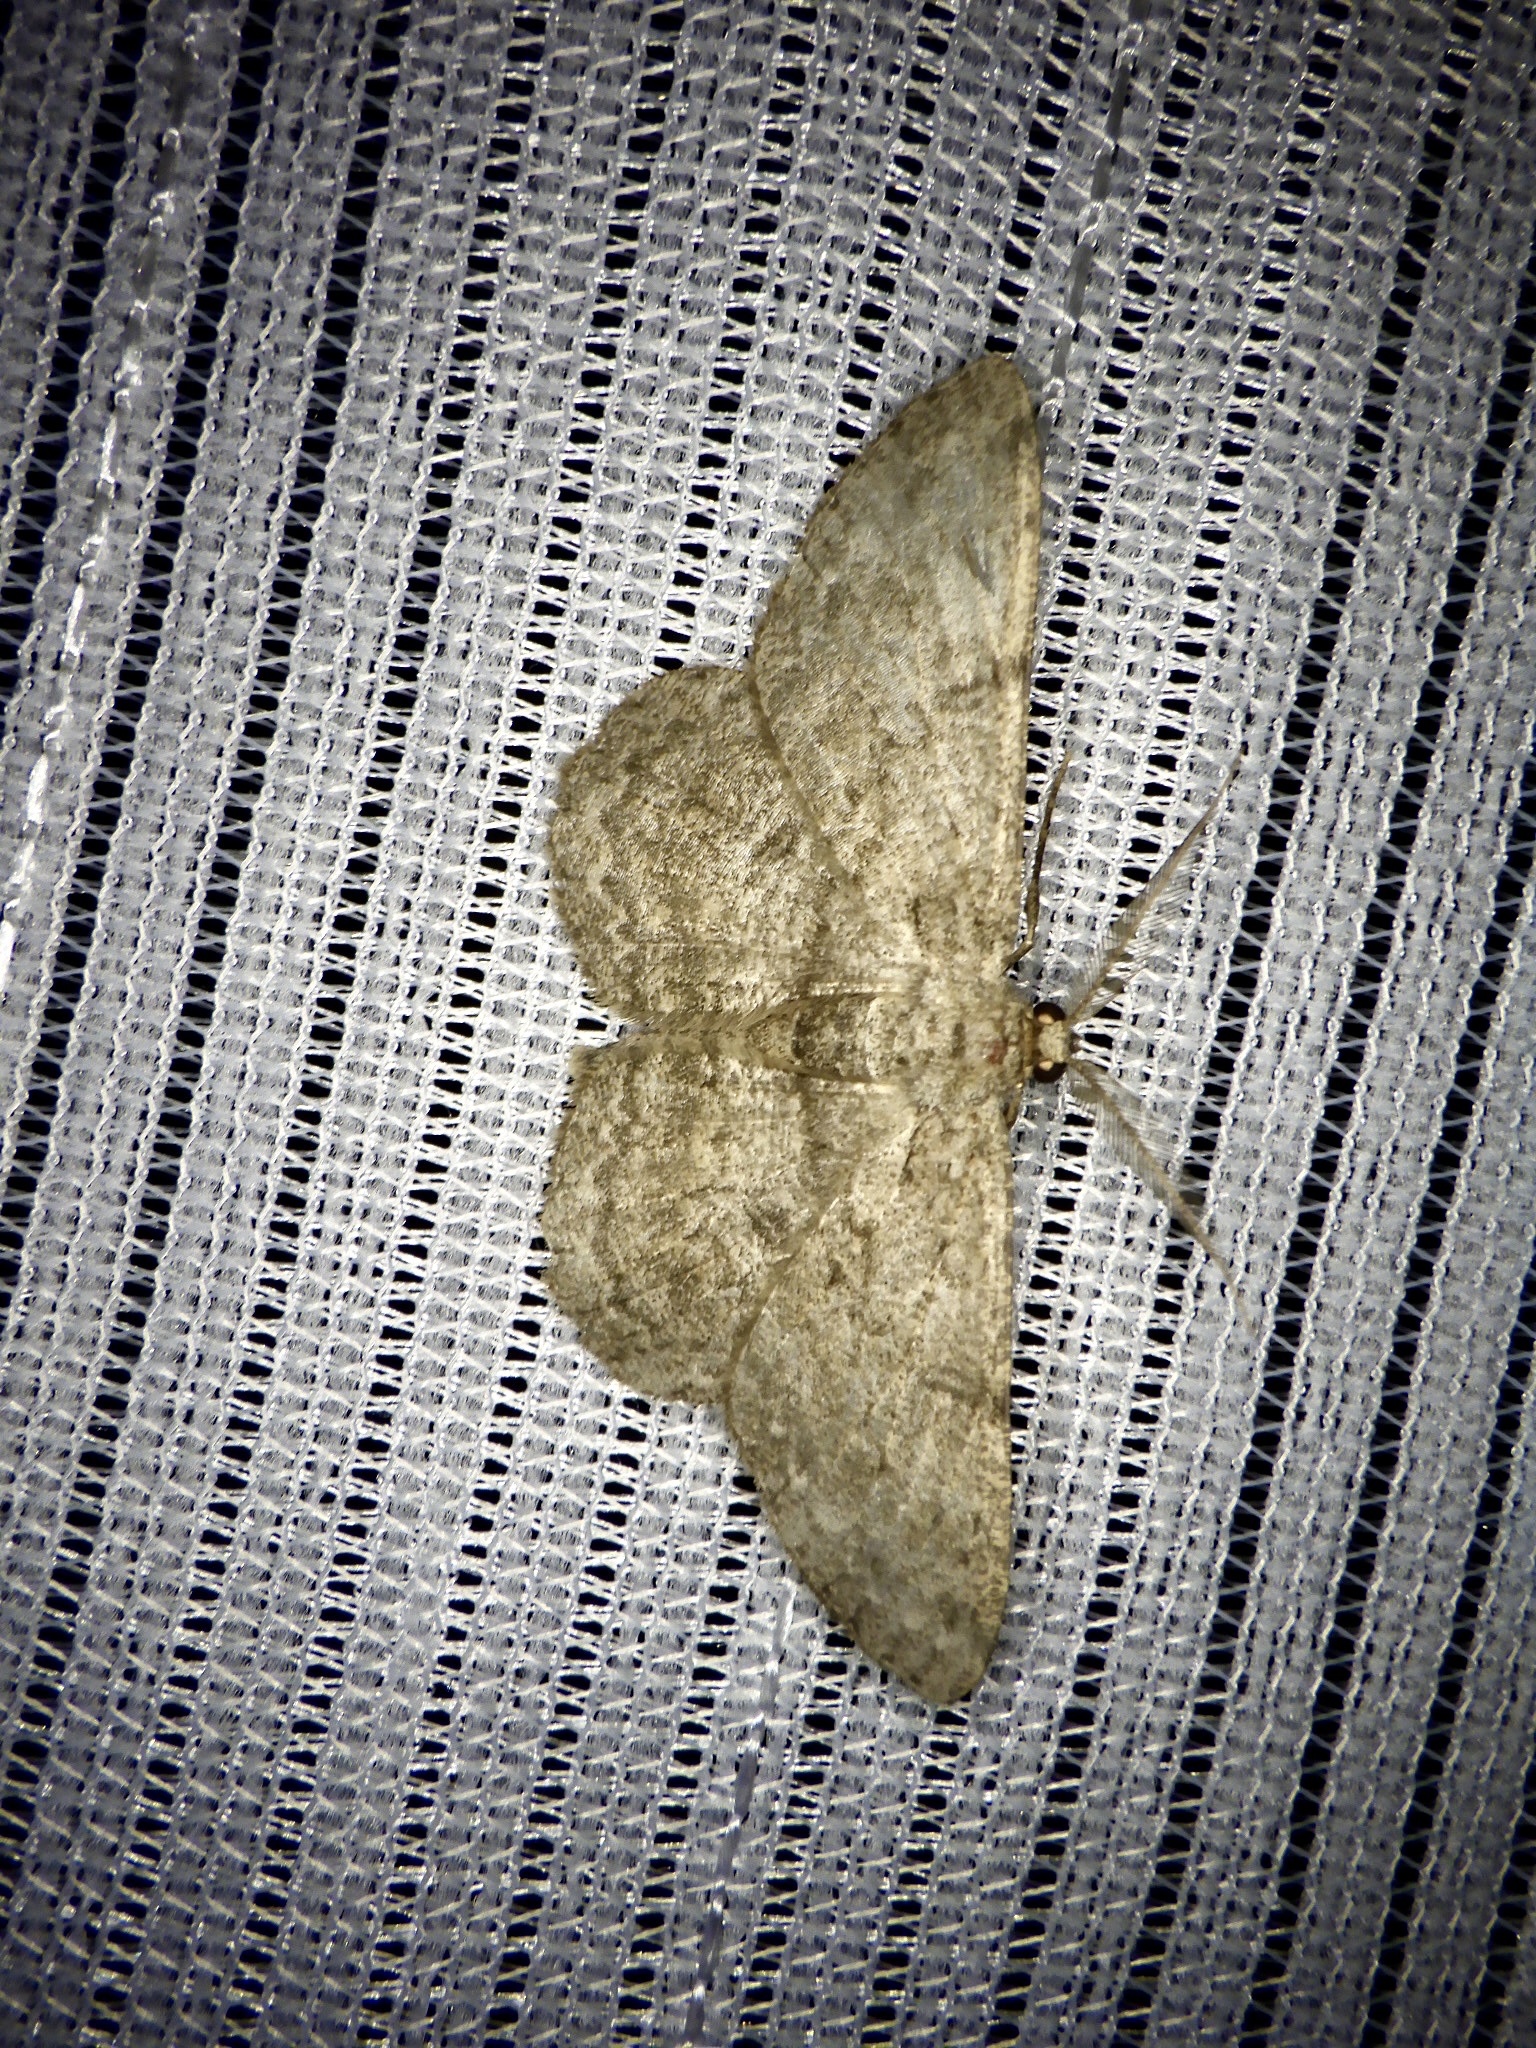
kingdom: Animalia
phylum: Arthropoda
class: Insecta
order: Lepidoptera
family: Geometridae
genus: Hypomecis
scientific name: Hypomecis punctinalis
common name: Pale oak beauty
